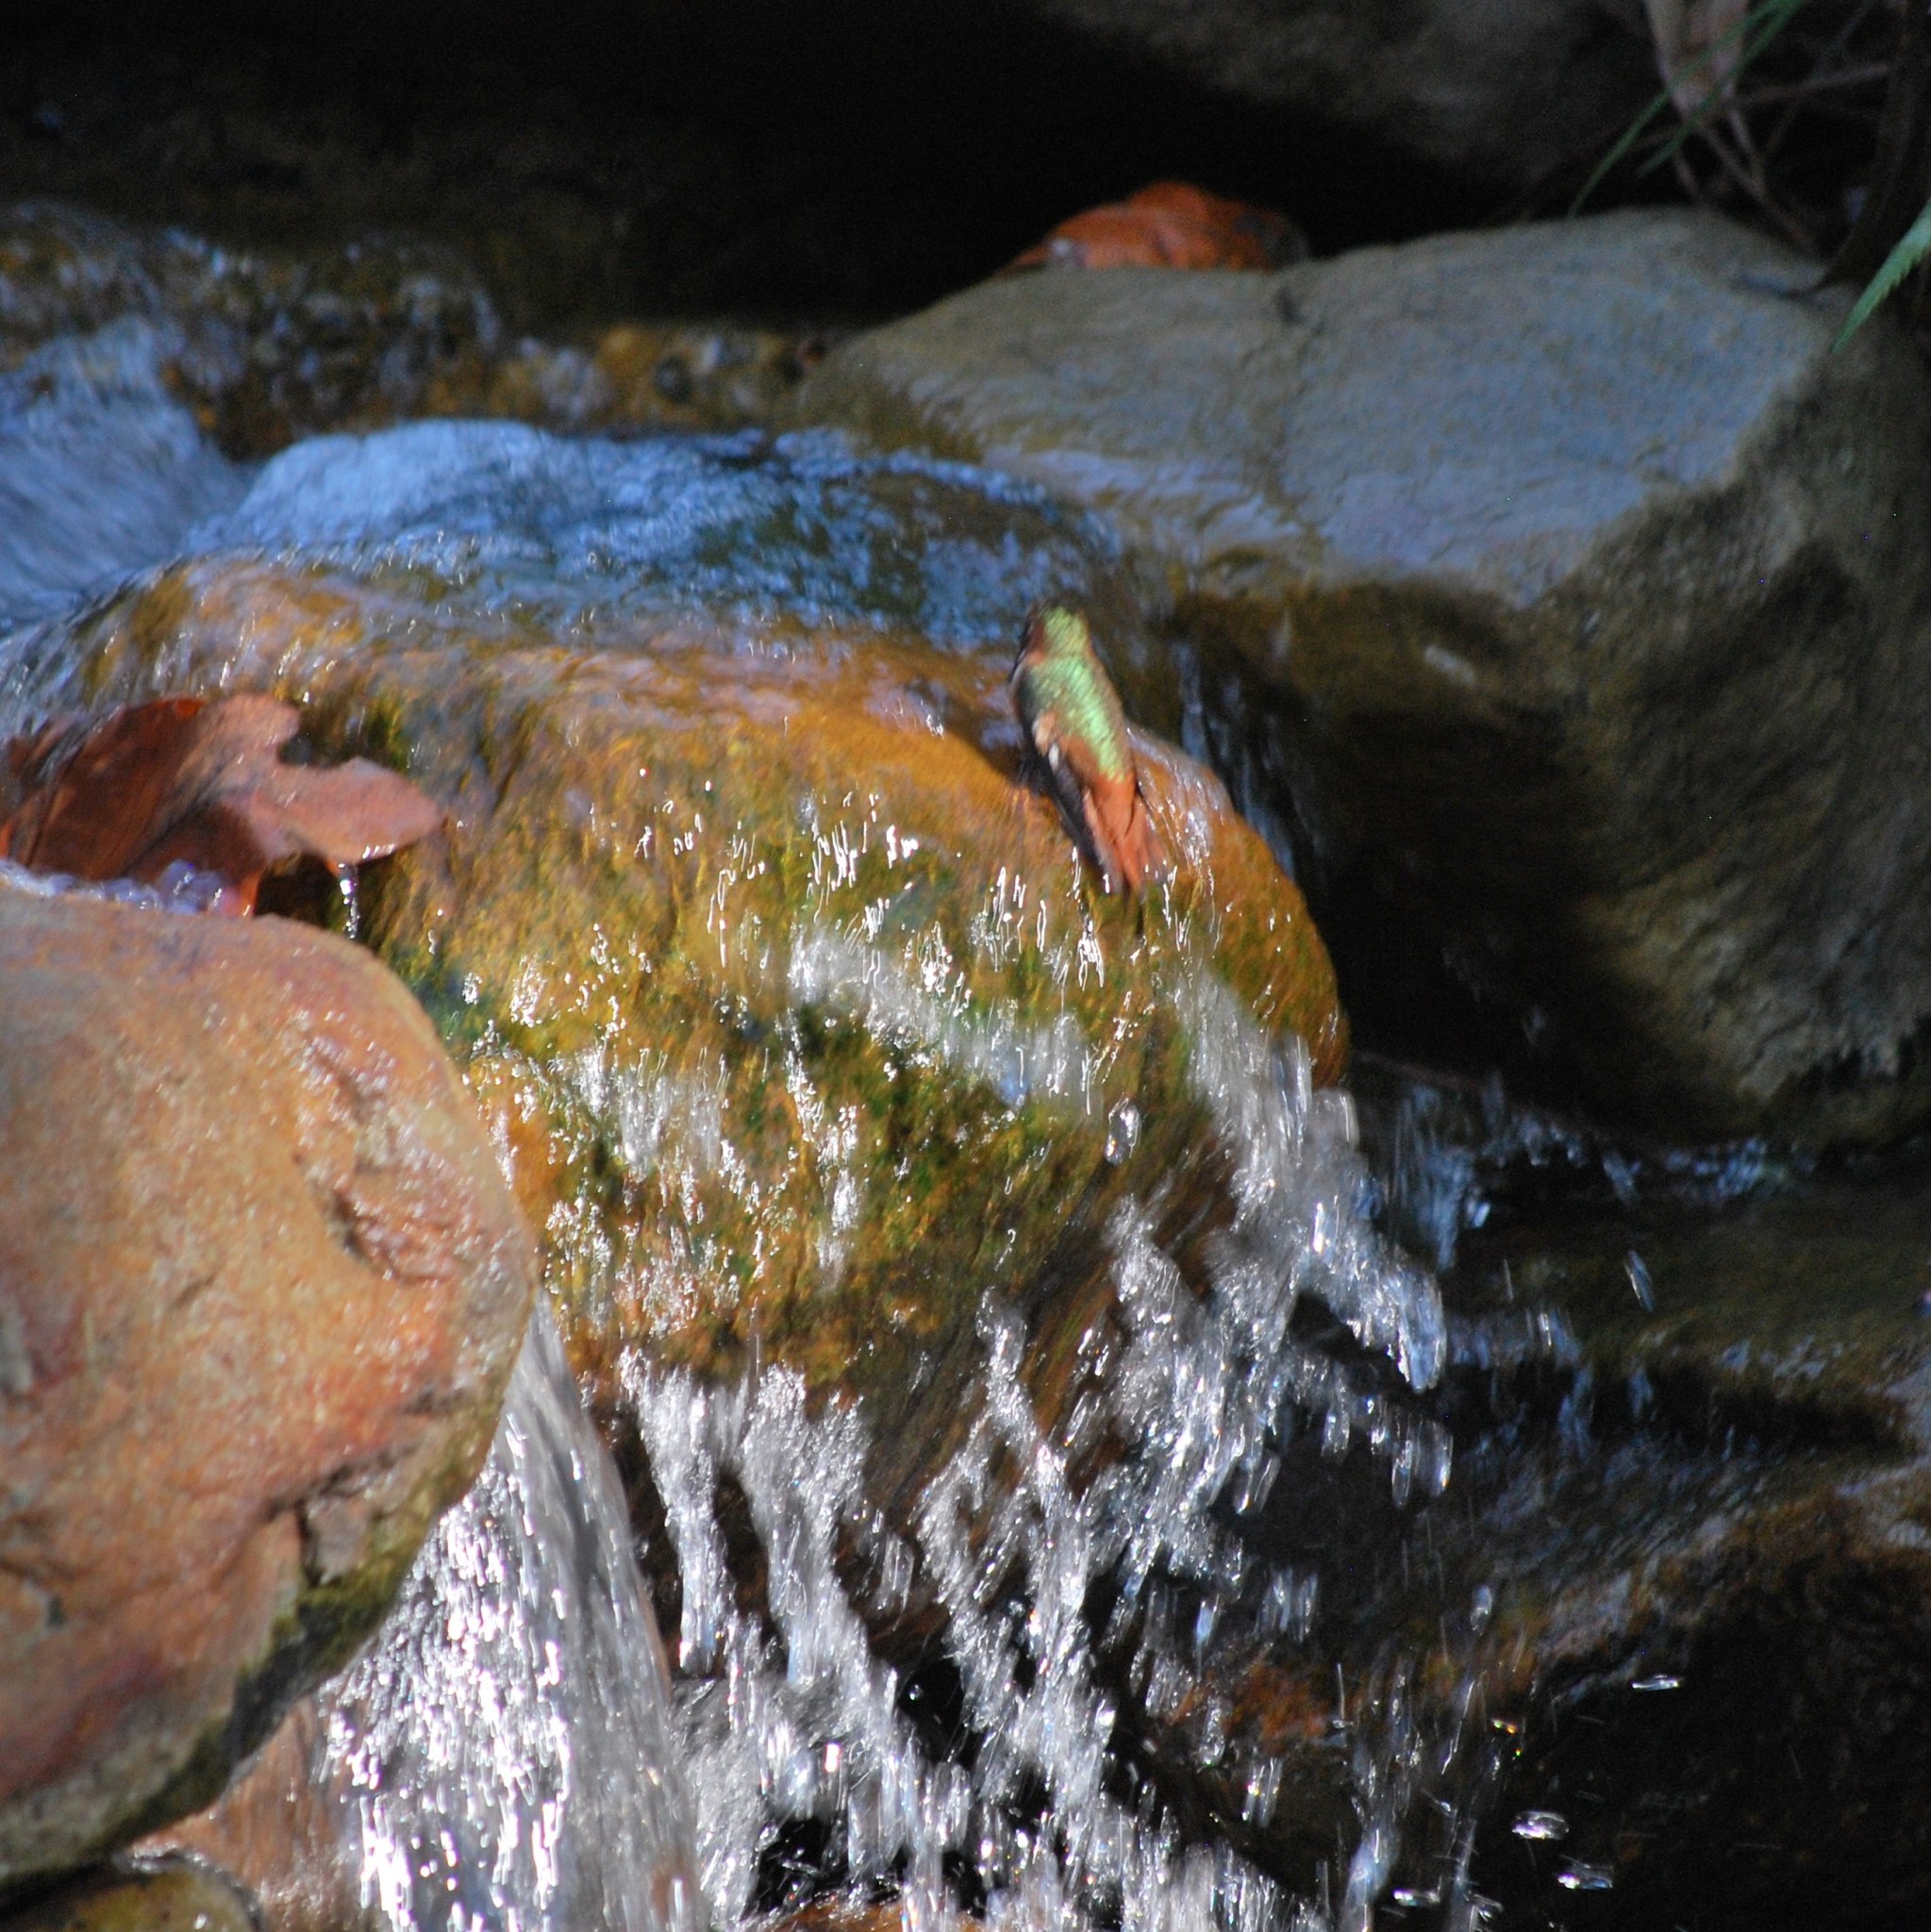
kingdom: Animalia
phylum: Chordata
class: Aves
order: Apodiformes
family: Trochilidae
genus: Selasphorus
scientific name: Selasphorus sasin
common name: Allen's hummingbird
